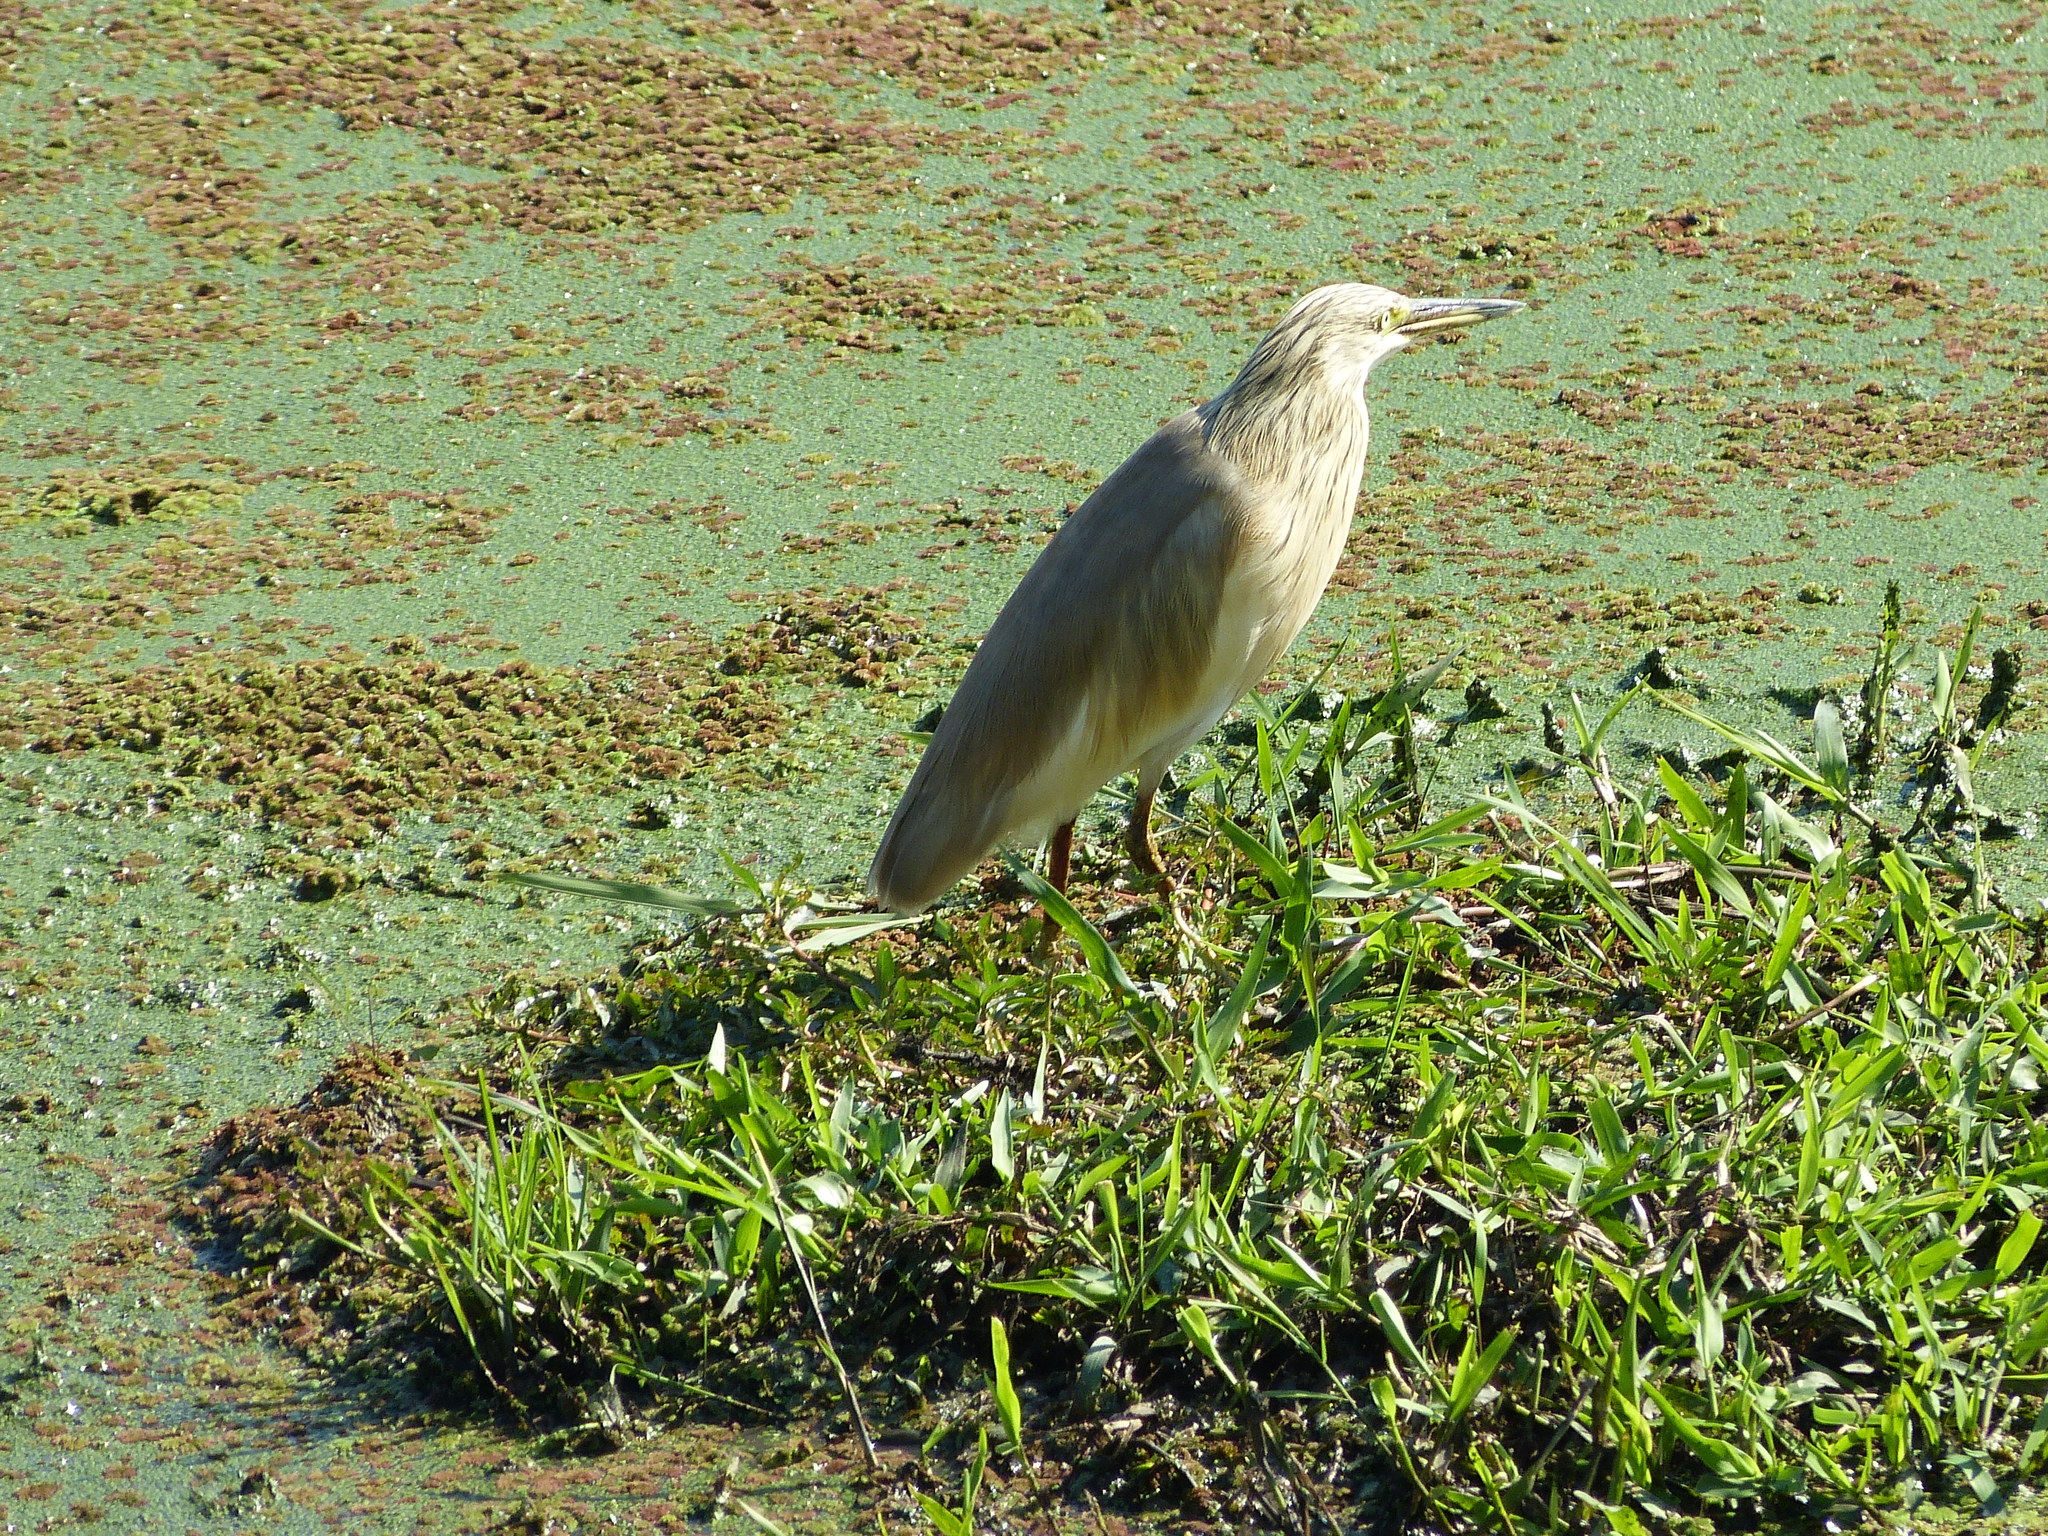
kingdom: Animalia
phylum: Chordata
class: Aves
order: Pelecaniformes
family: Ardeidae
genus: Ardeola
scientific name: Ardeola ralloides
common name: Squacco heron
